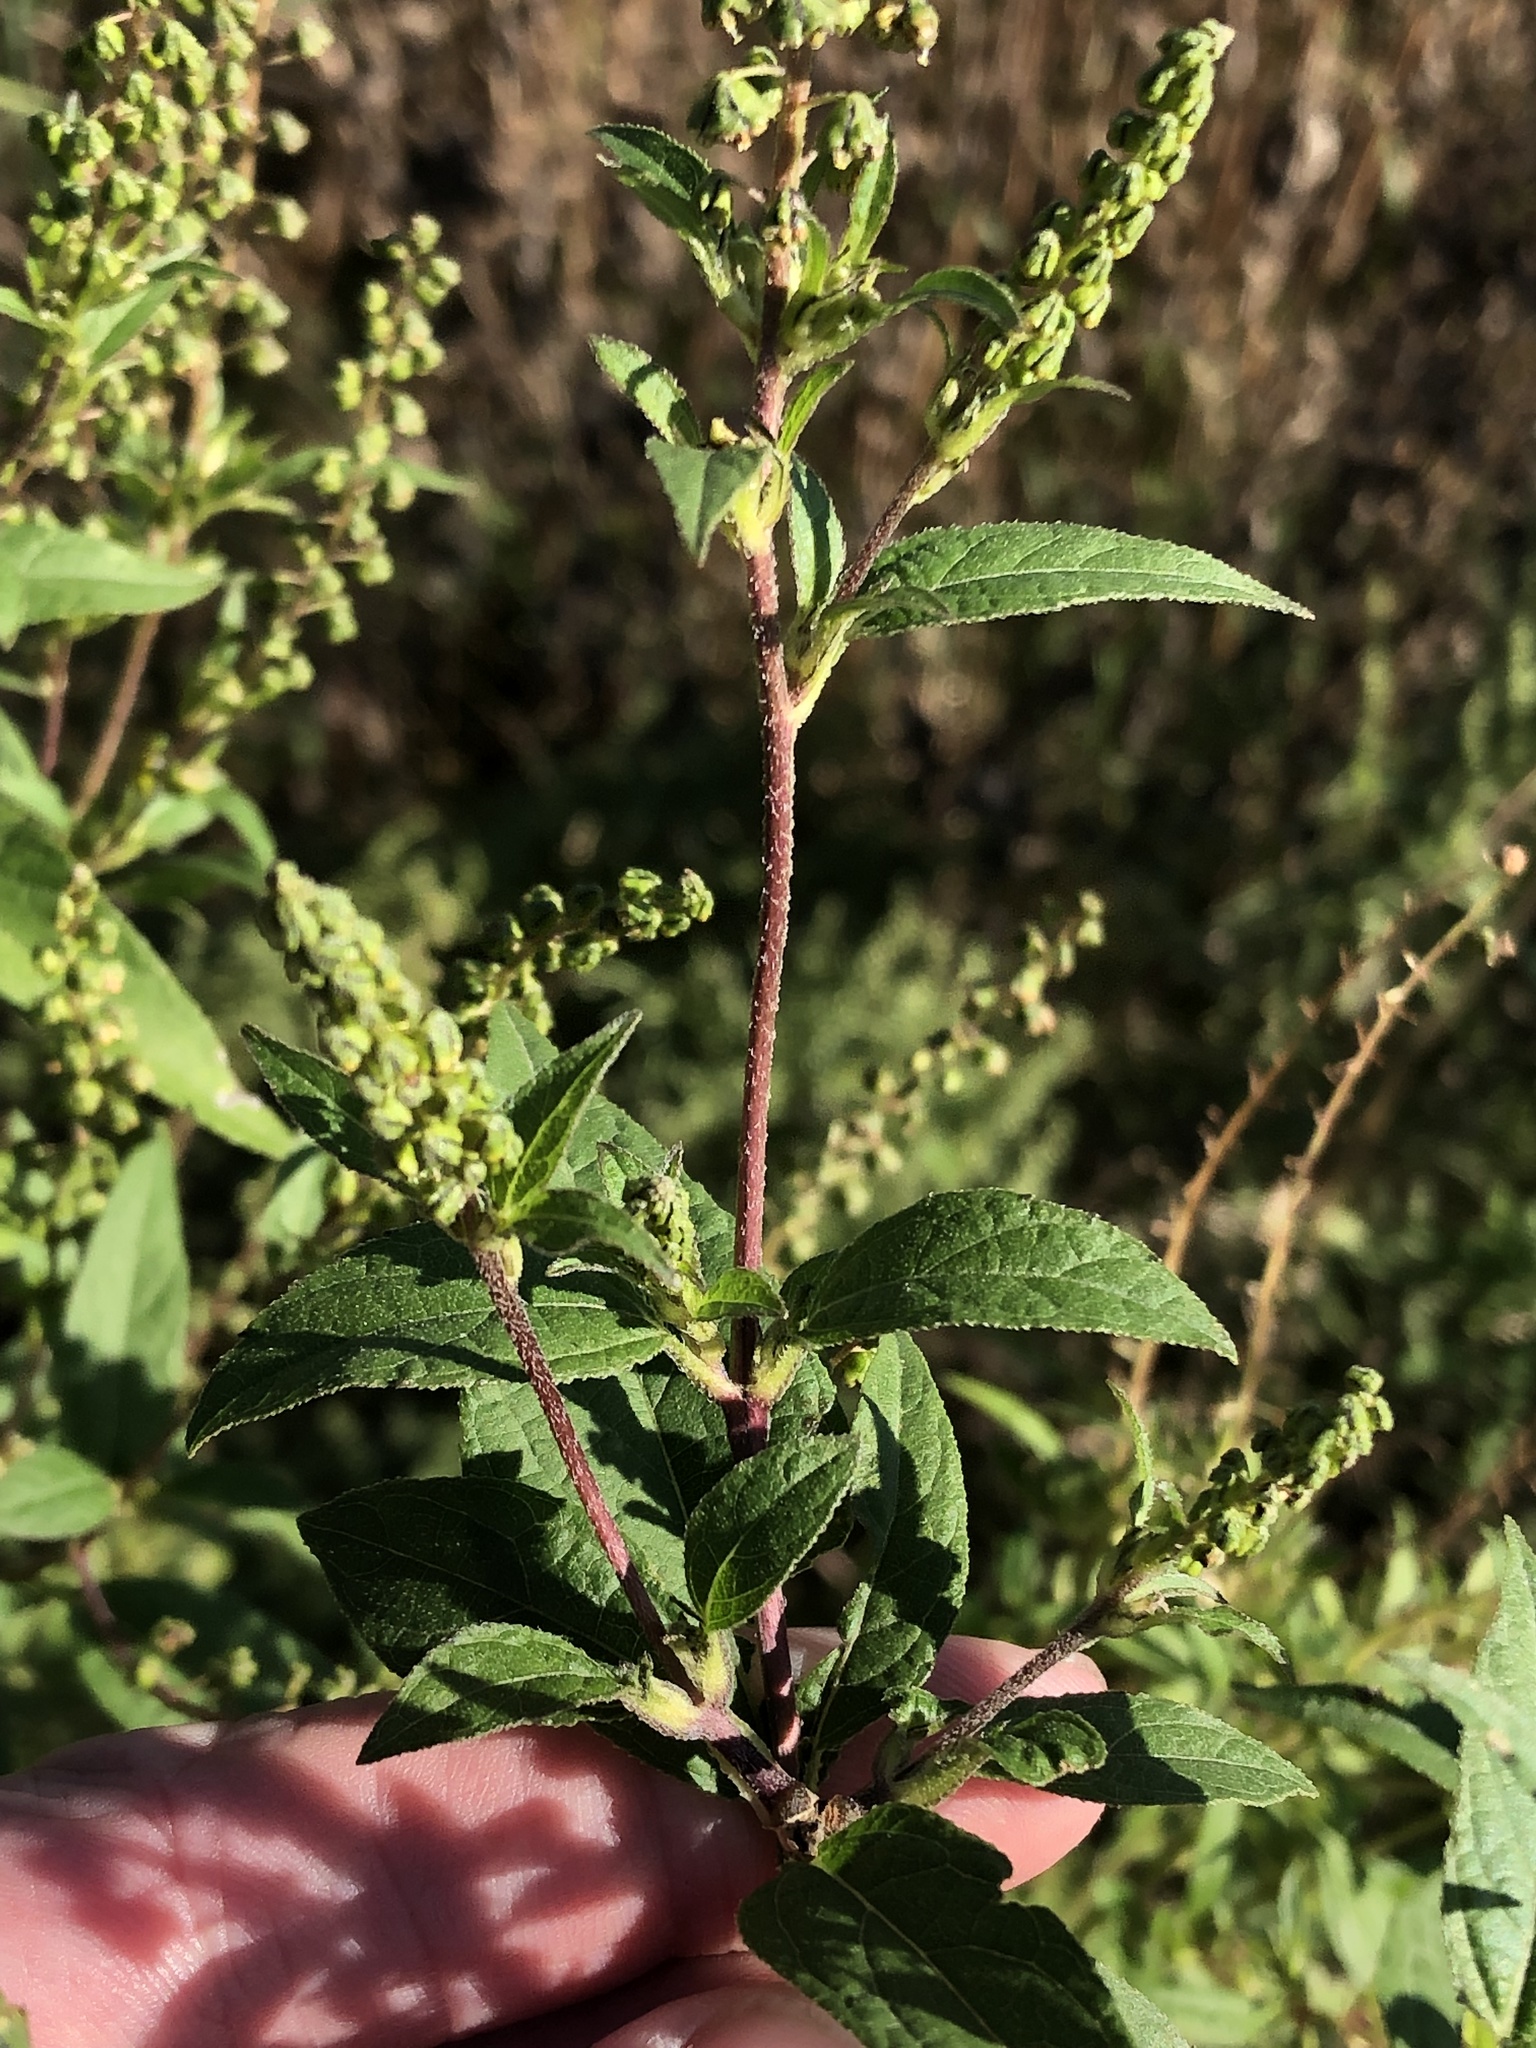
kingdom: Plantae
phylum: Tracheophyta
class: Magnoliopsida
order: Asterales
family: Asteraceae
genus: Ambrosia
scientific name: Ambrosia trifida
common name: Giant ragweed
